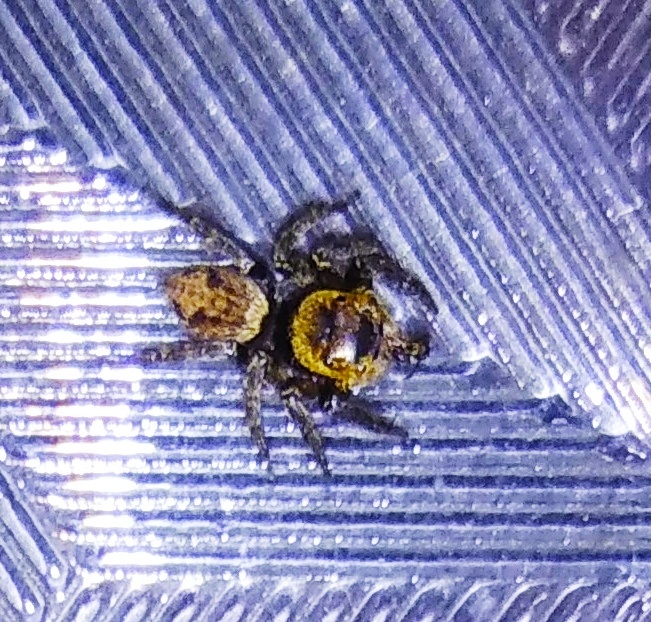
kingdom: Animalia
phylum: Arthropoda
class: Arachnida
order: Araneae
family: Salticidae
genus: Hasarius
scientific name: Hasarius adansoni
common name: Jumping spider
